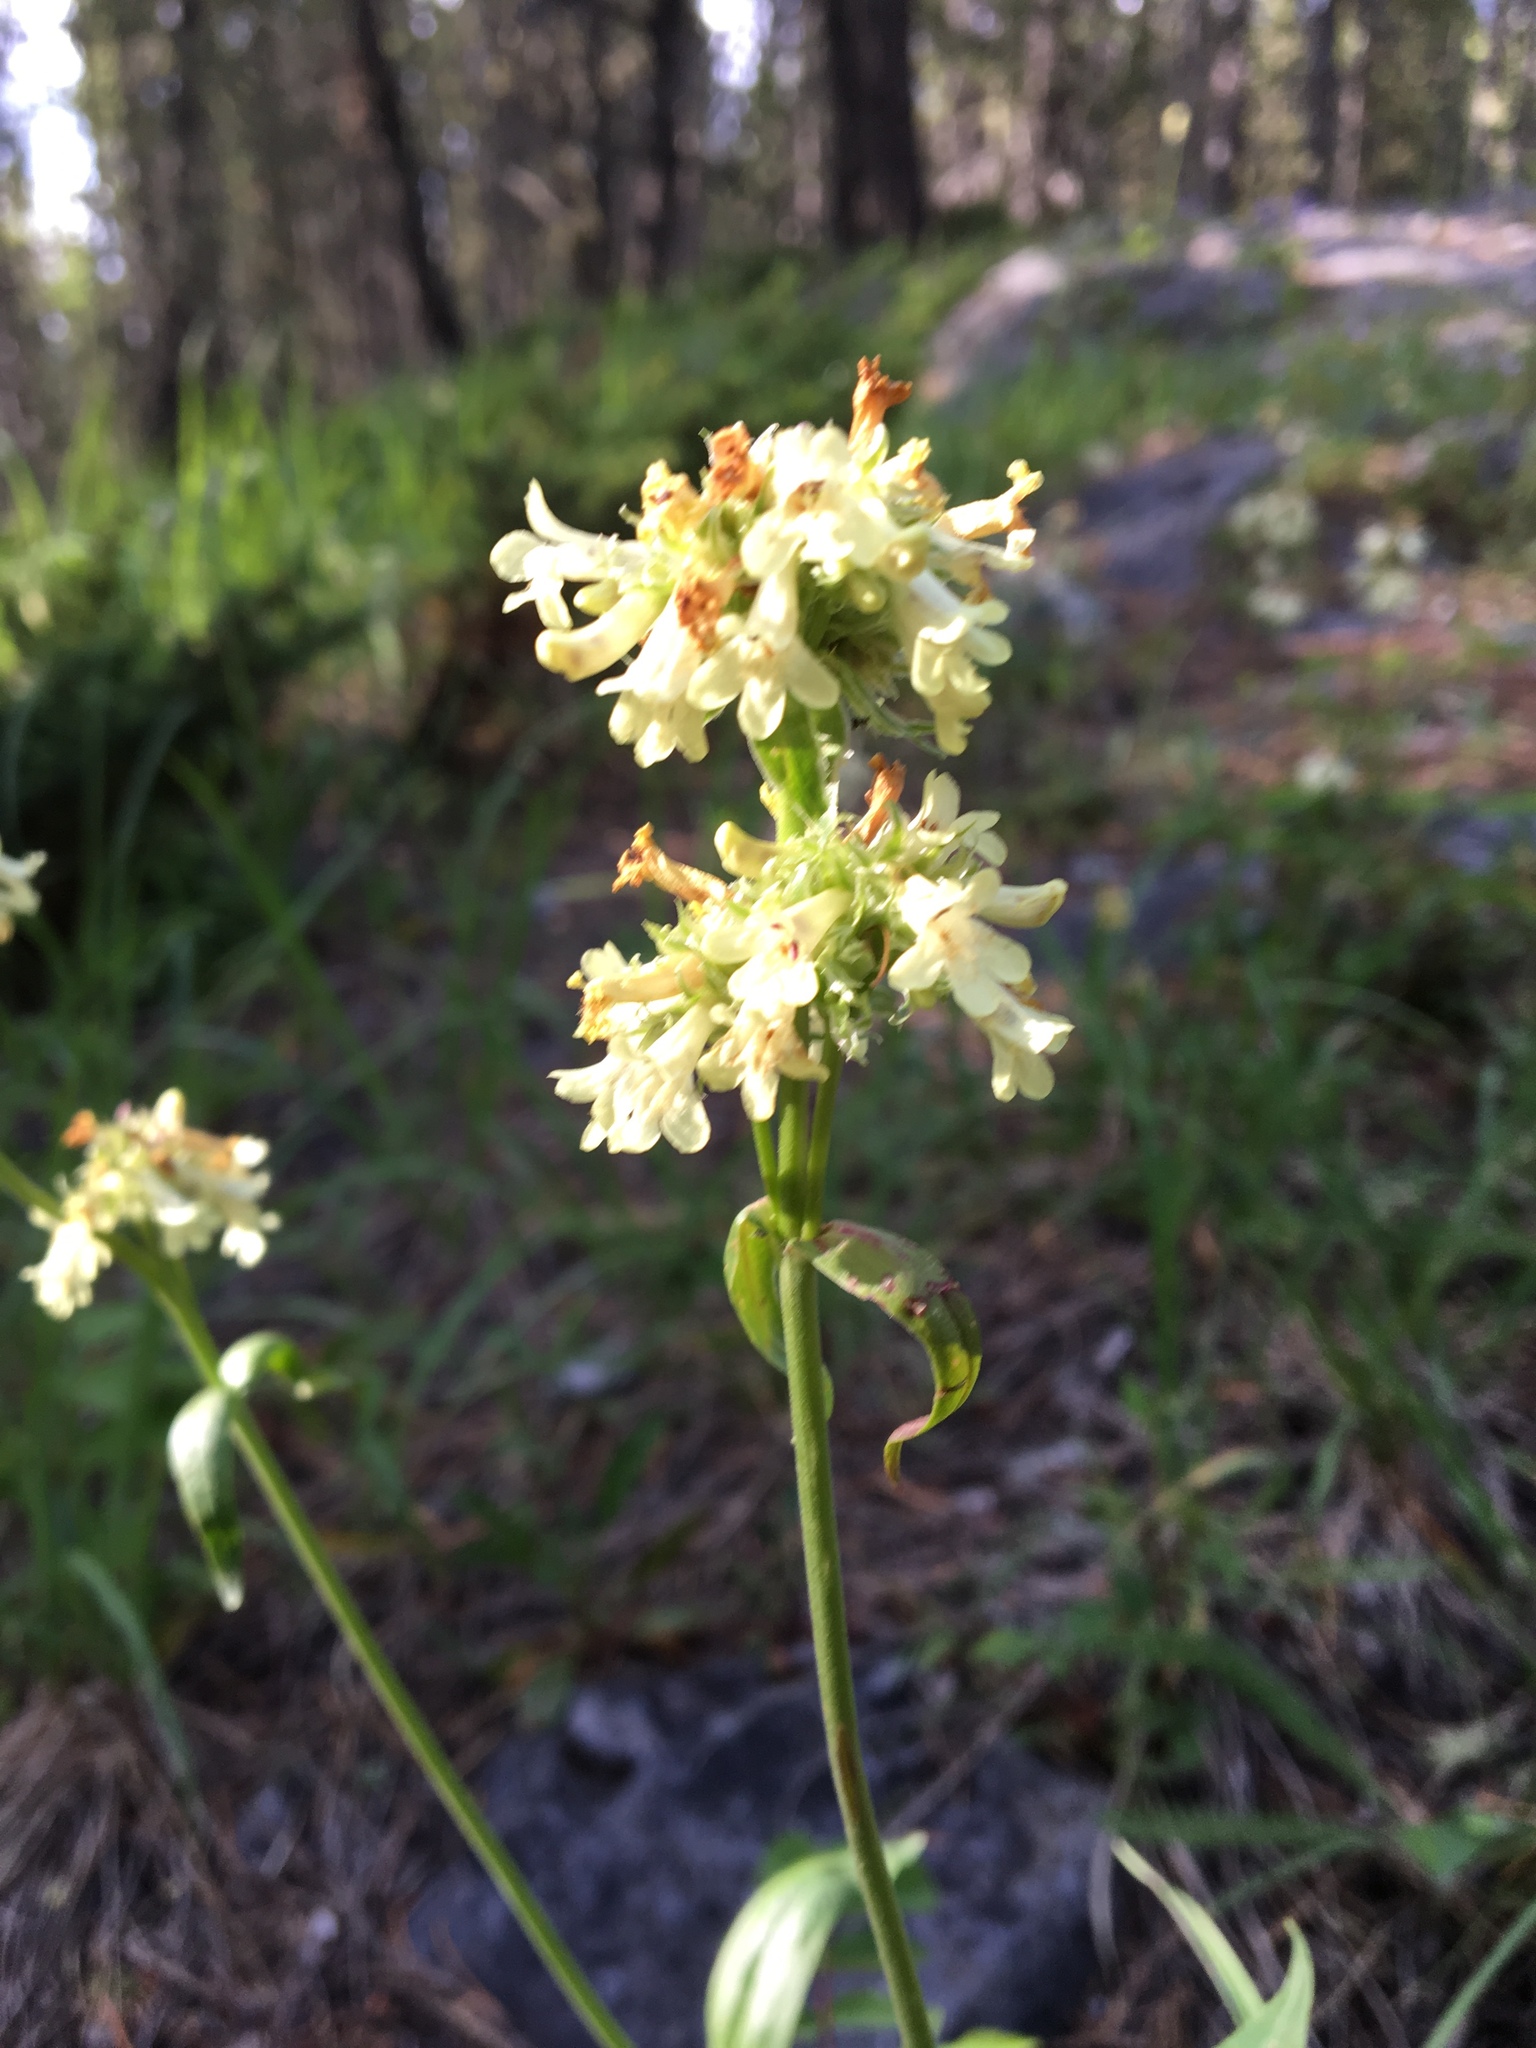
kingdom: Plantae
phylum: Tracheophyta
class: Magnoliopsida
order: Lamiales
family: Plantaginaceae
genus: Penstemon
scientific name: Penstemon confertus
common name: Lesser yellow beardtongue
